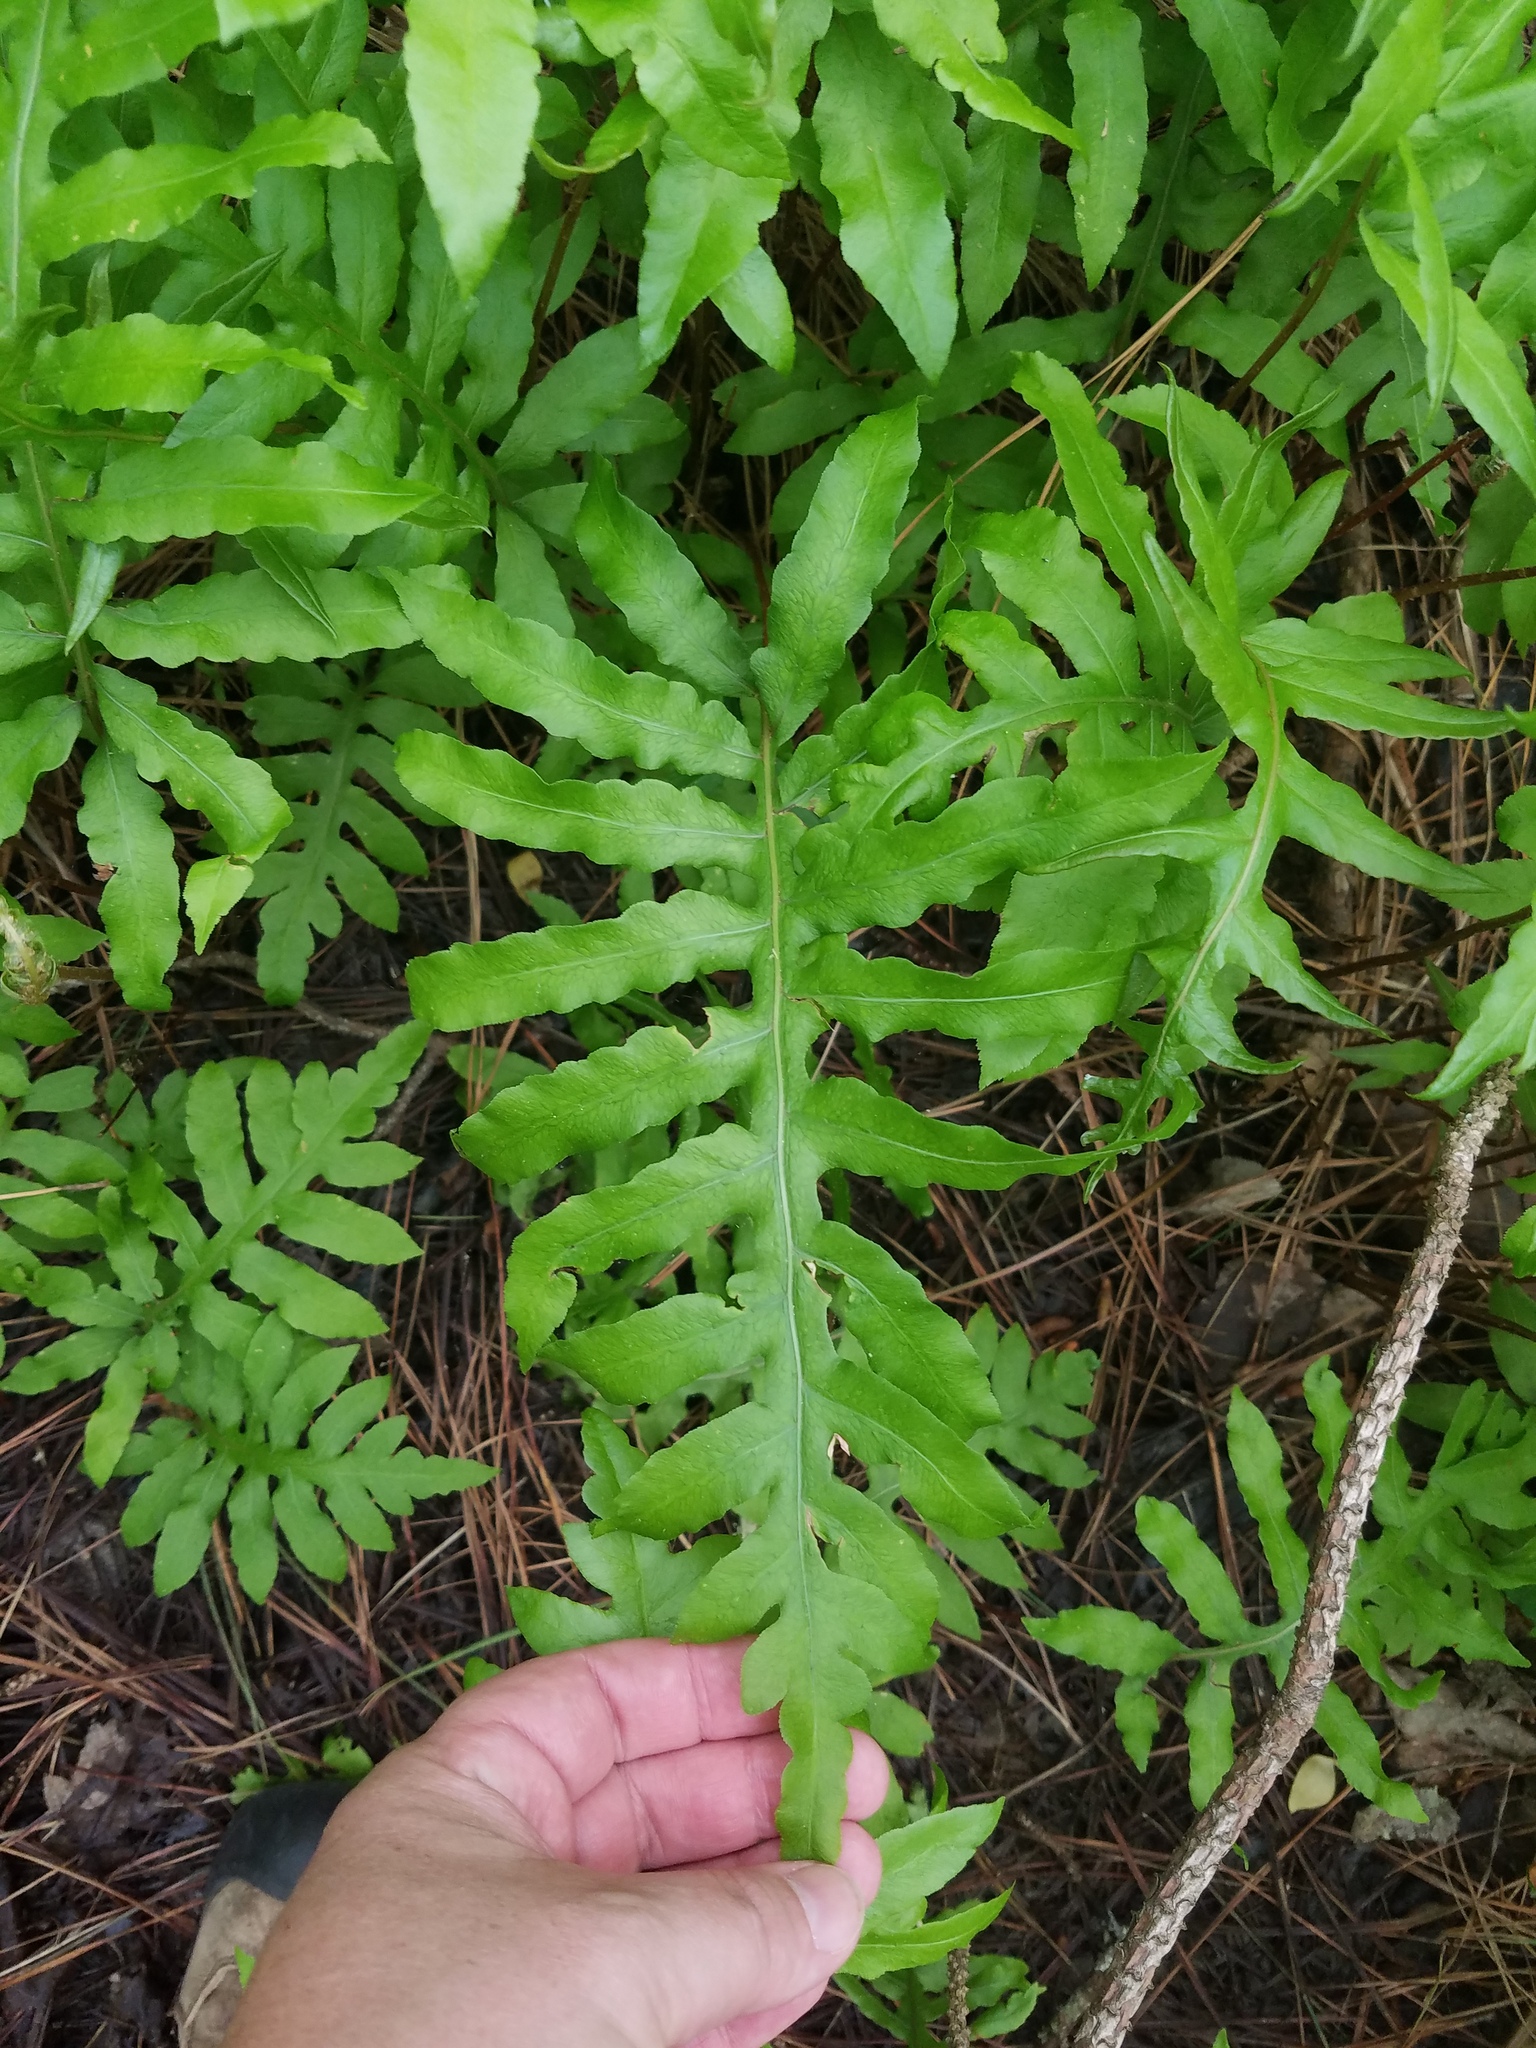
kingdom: Plantae
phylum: Tracheophyta
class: Polypodiopsida
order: Polypodiales
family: Blechnaceae
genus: Lorinseria
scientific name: Lorinseria areolata
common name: Dwarf chain fern
